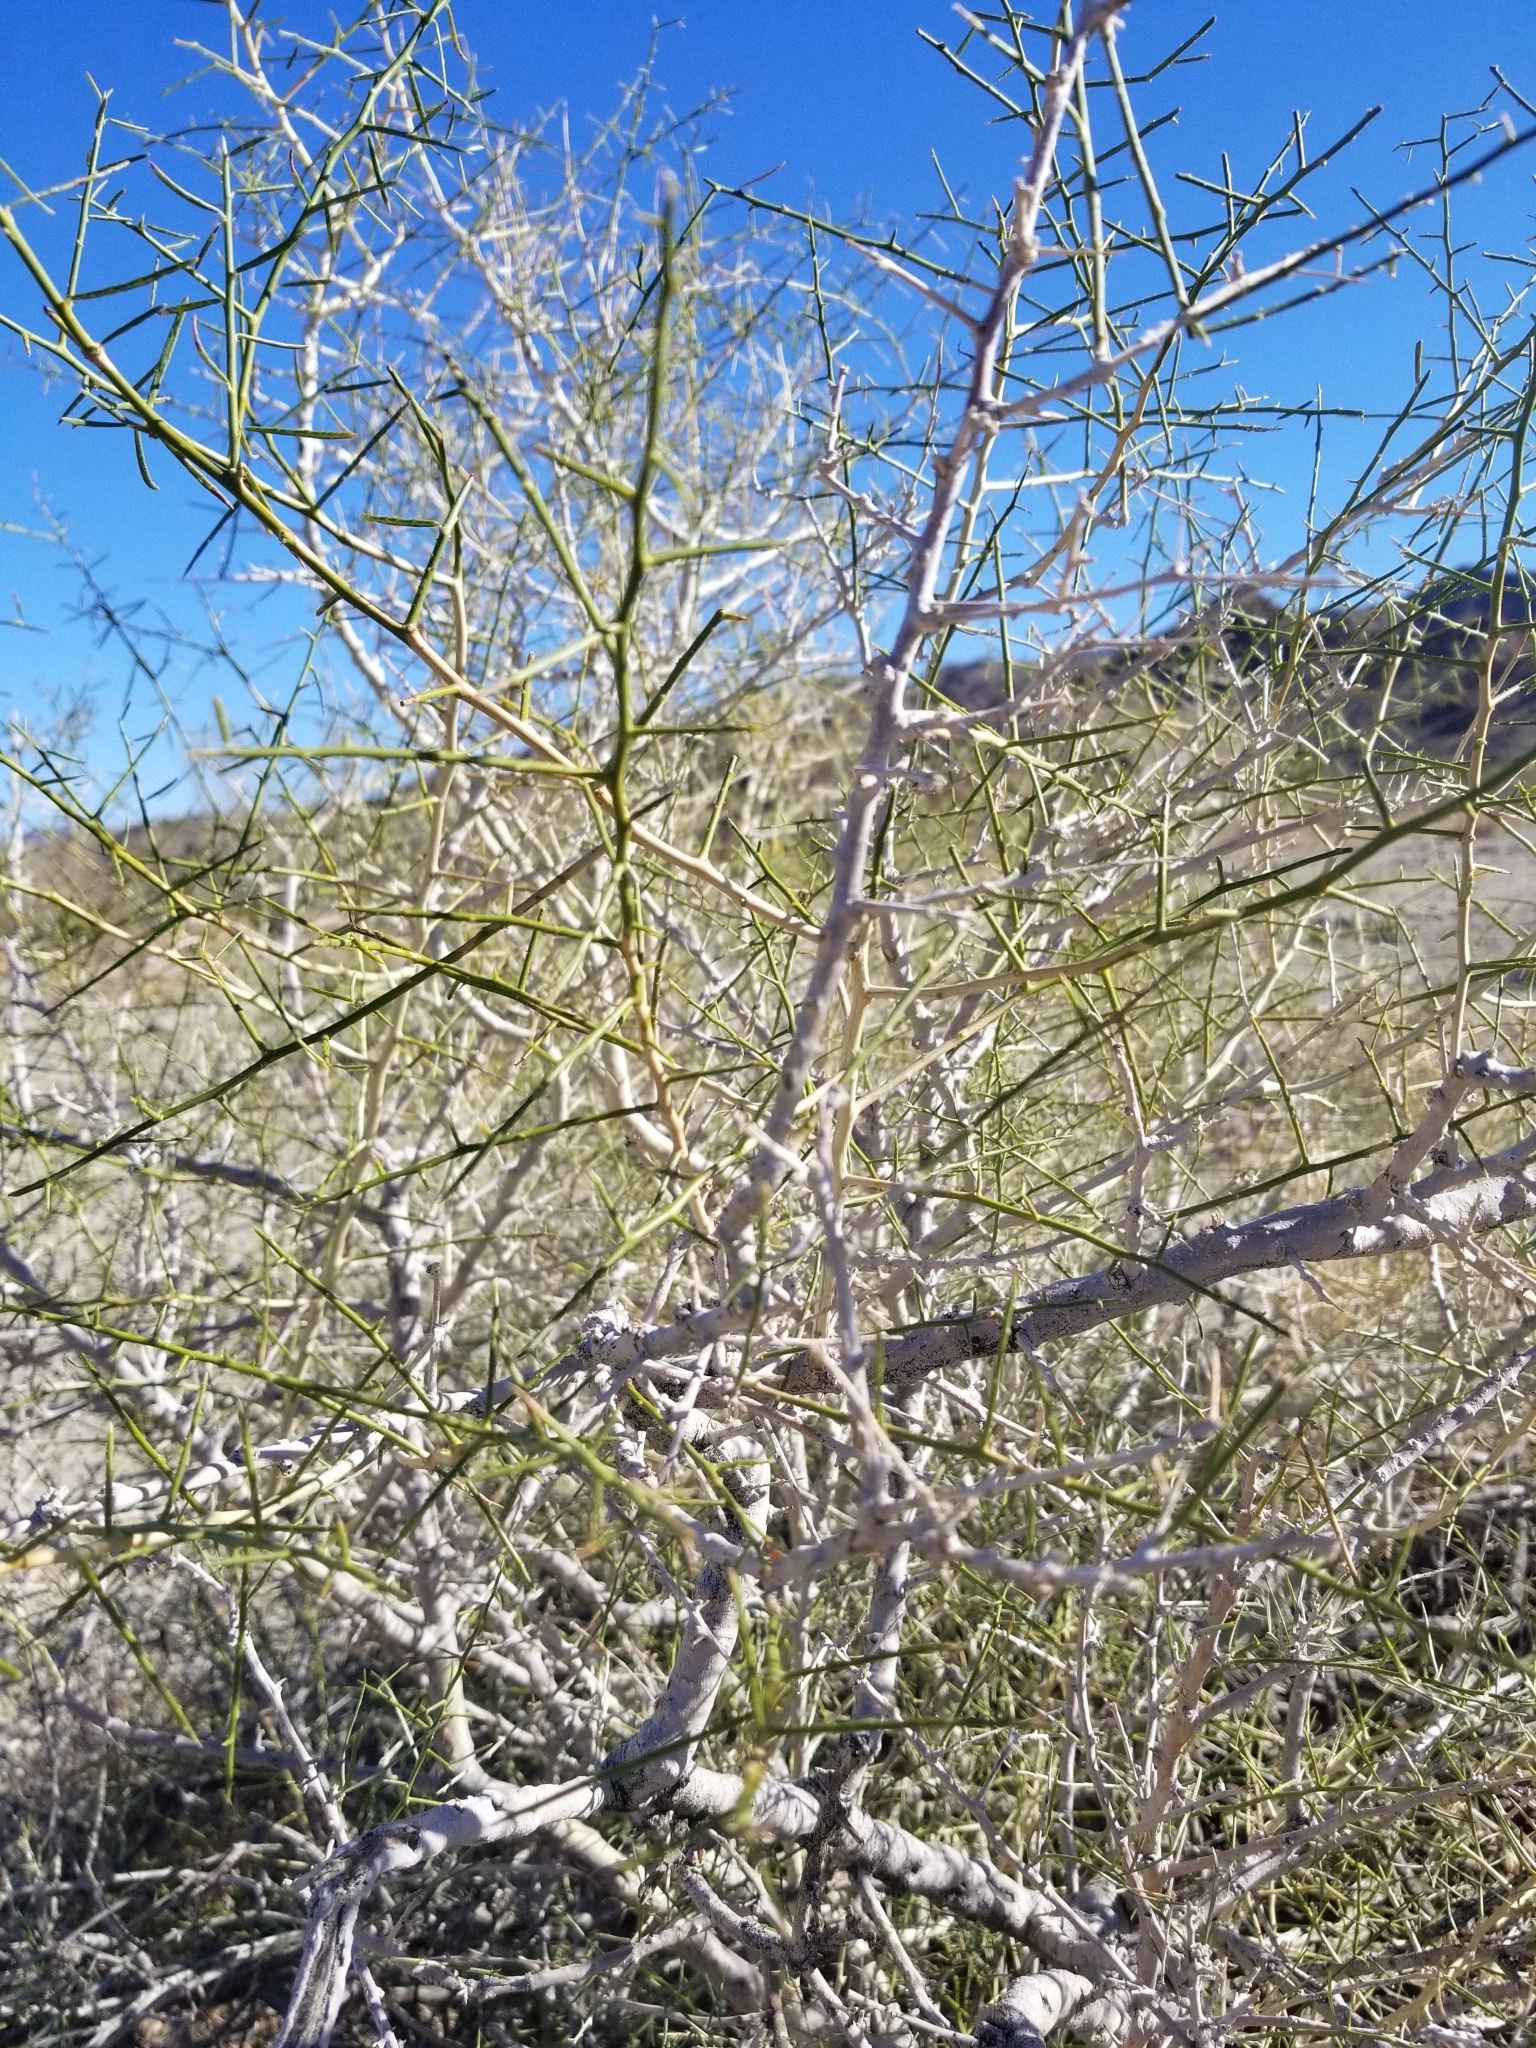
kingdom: Plantae
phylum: Tracheophyta
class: Magnoliopsida
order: Fabales
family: Fabaceae
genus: Psorothamnus
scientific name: Psorothamnus schottii
